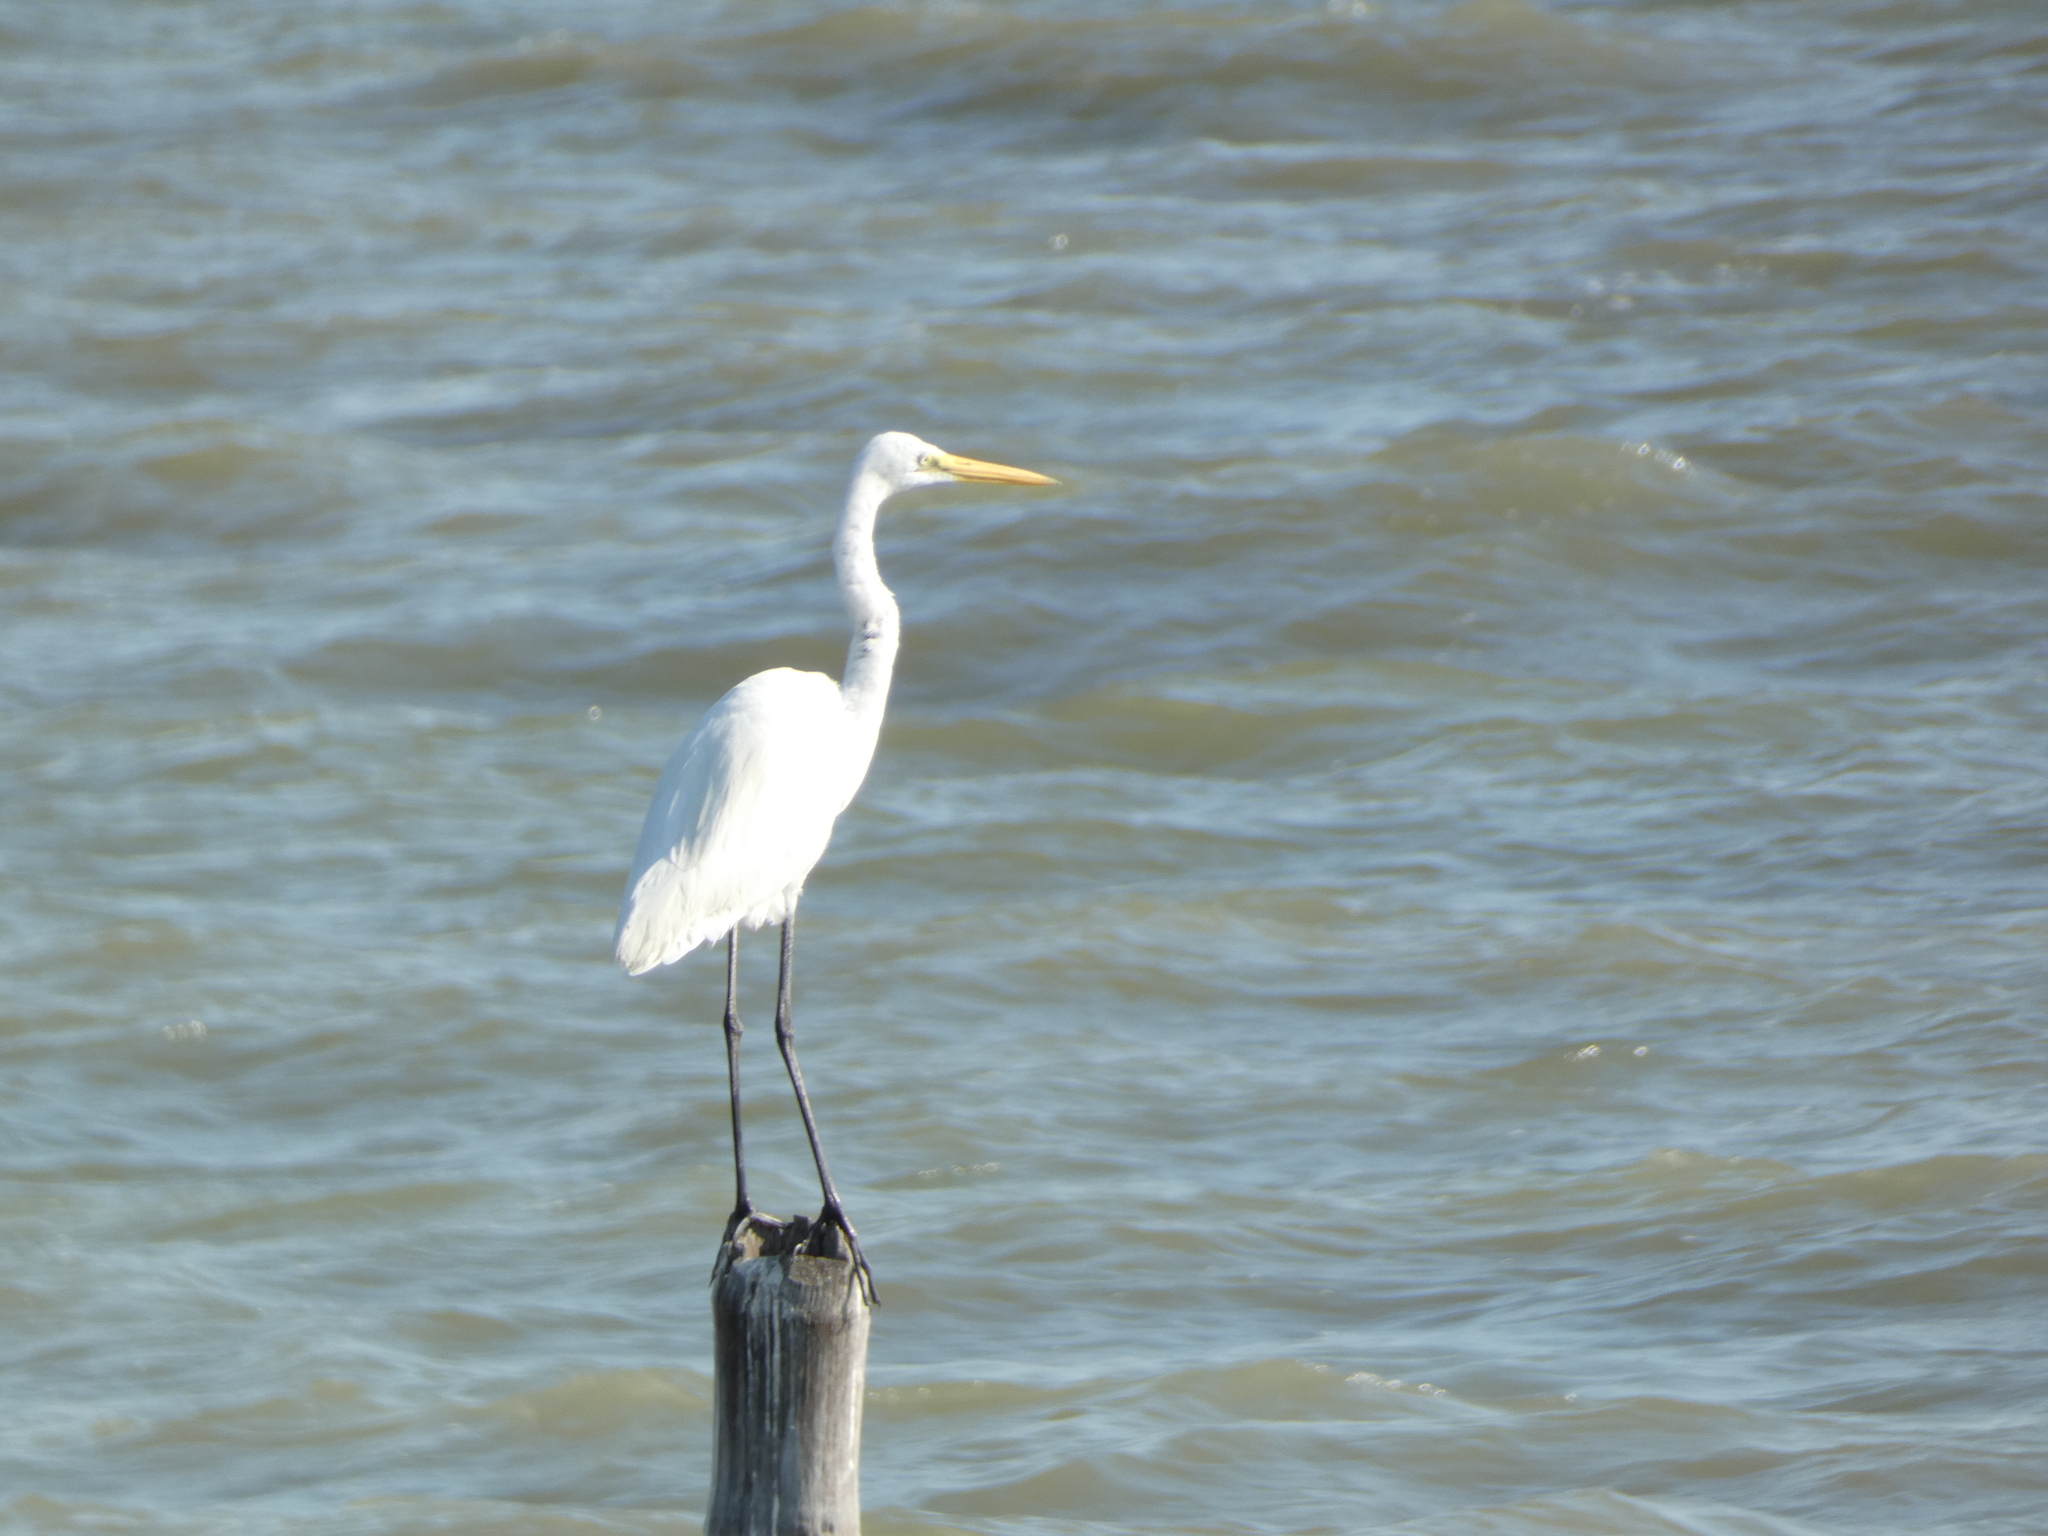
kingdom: Animalia
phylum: Chordata
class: Aves
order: Pelecaniformes
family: Ardeidae
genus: Ardea
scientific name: Ardea alba
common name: Great egret
